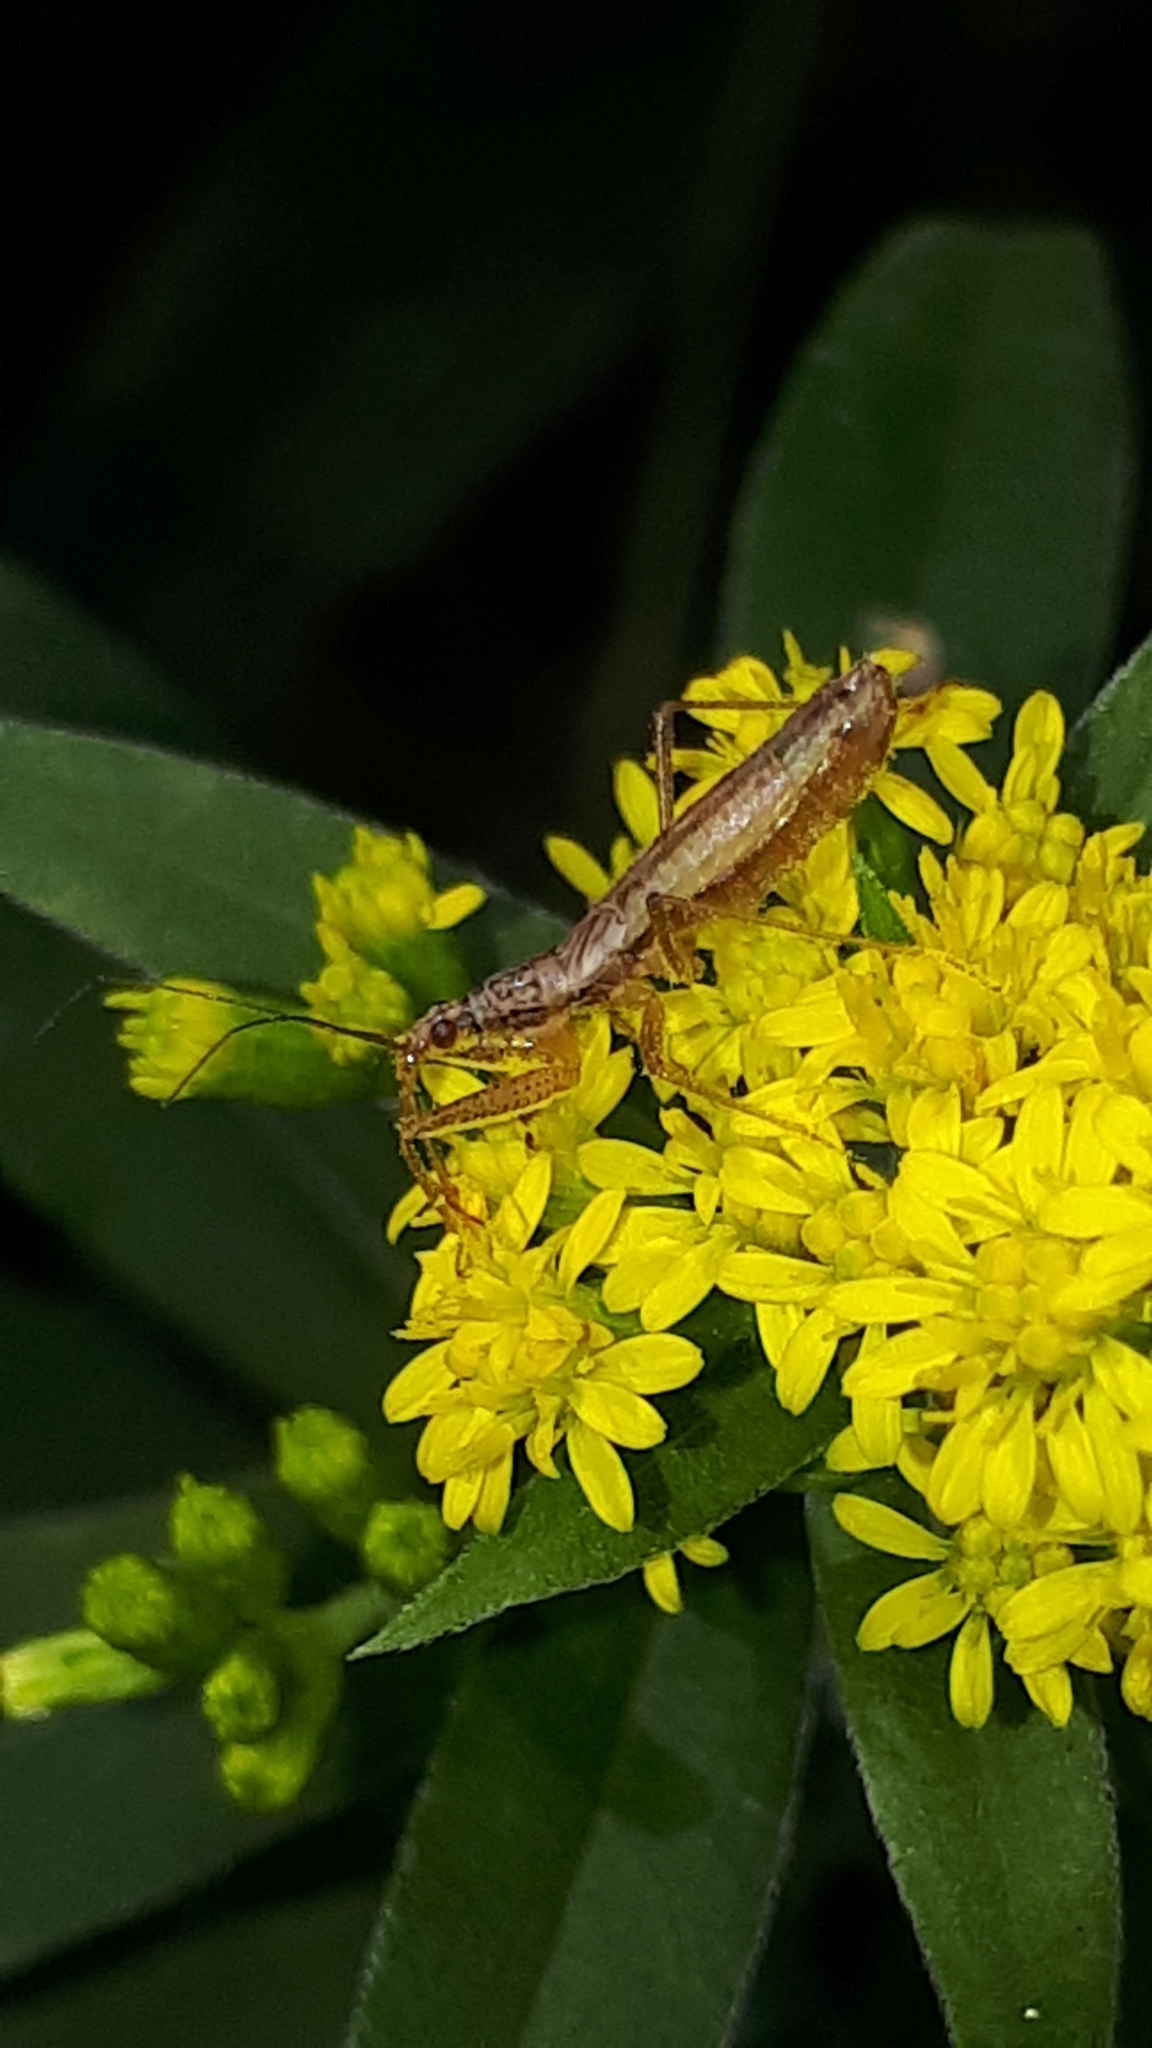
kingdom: Animalia
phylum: Arthropoda
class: Insecta
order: Hemiptera
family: Nabidae
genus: Nabis
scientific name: Nabis limbatus
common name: Marsh damselbug
